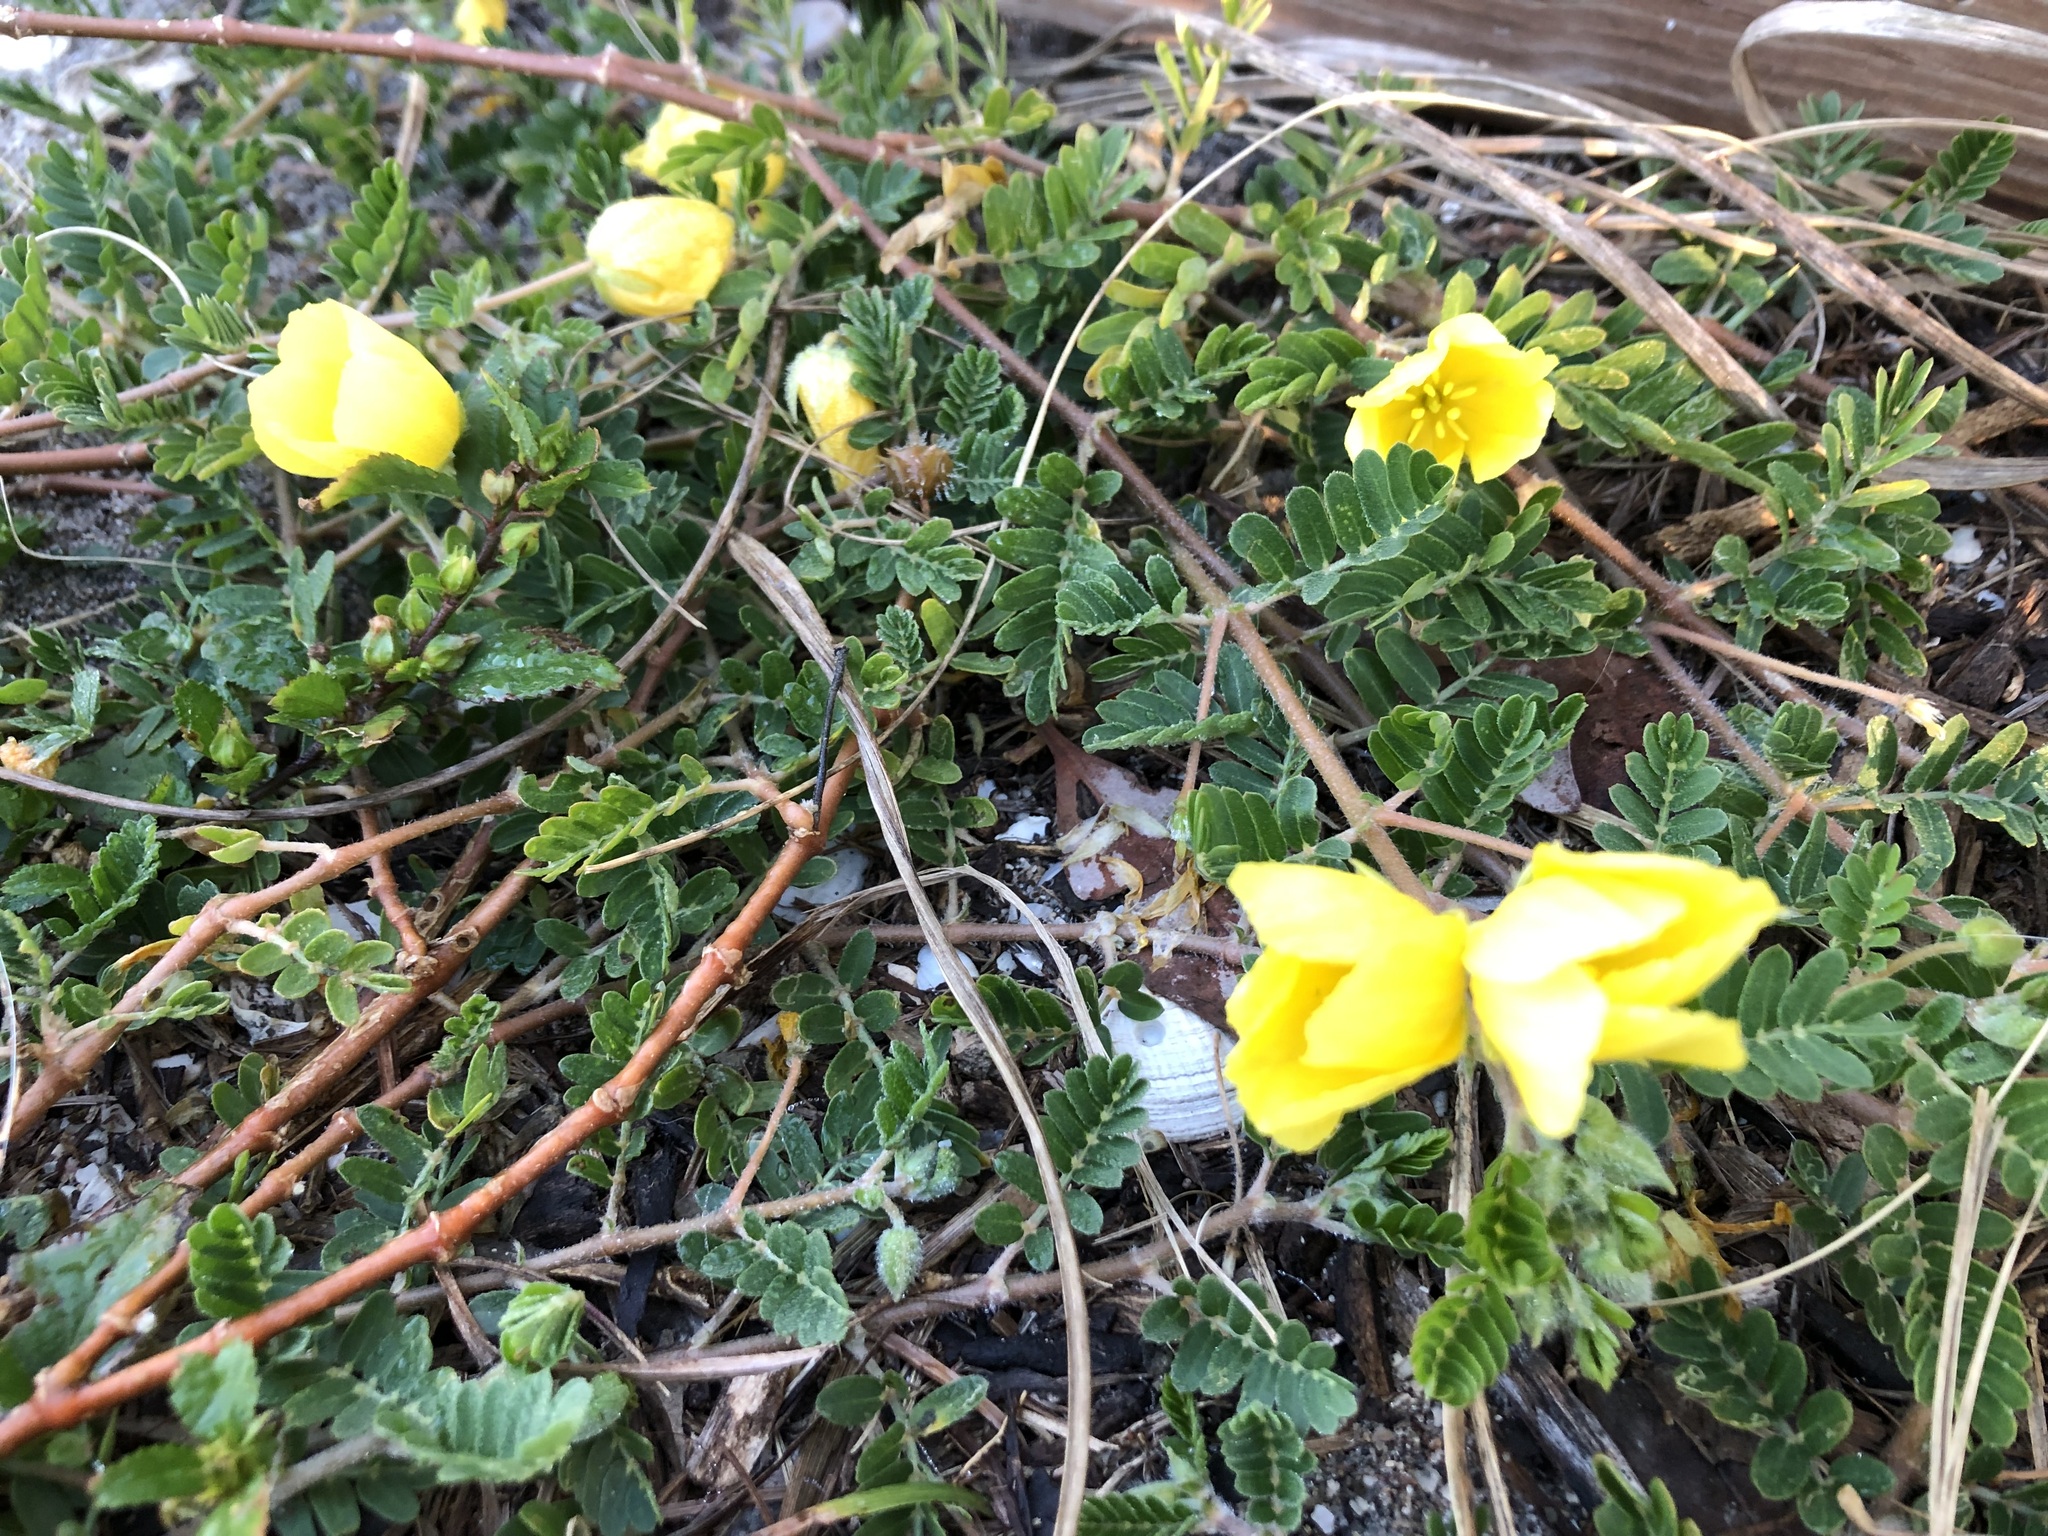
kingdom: Plantae
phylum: Tracheophyta
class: Magnoliopsida
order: Zygophyllales
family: Zygophyllaceae
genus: Tribulus
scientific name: Tribulus cistoides
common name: Jamaican feverplant
